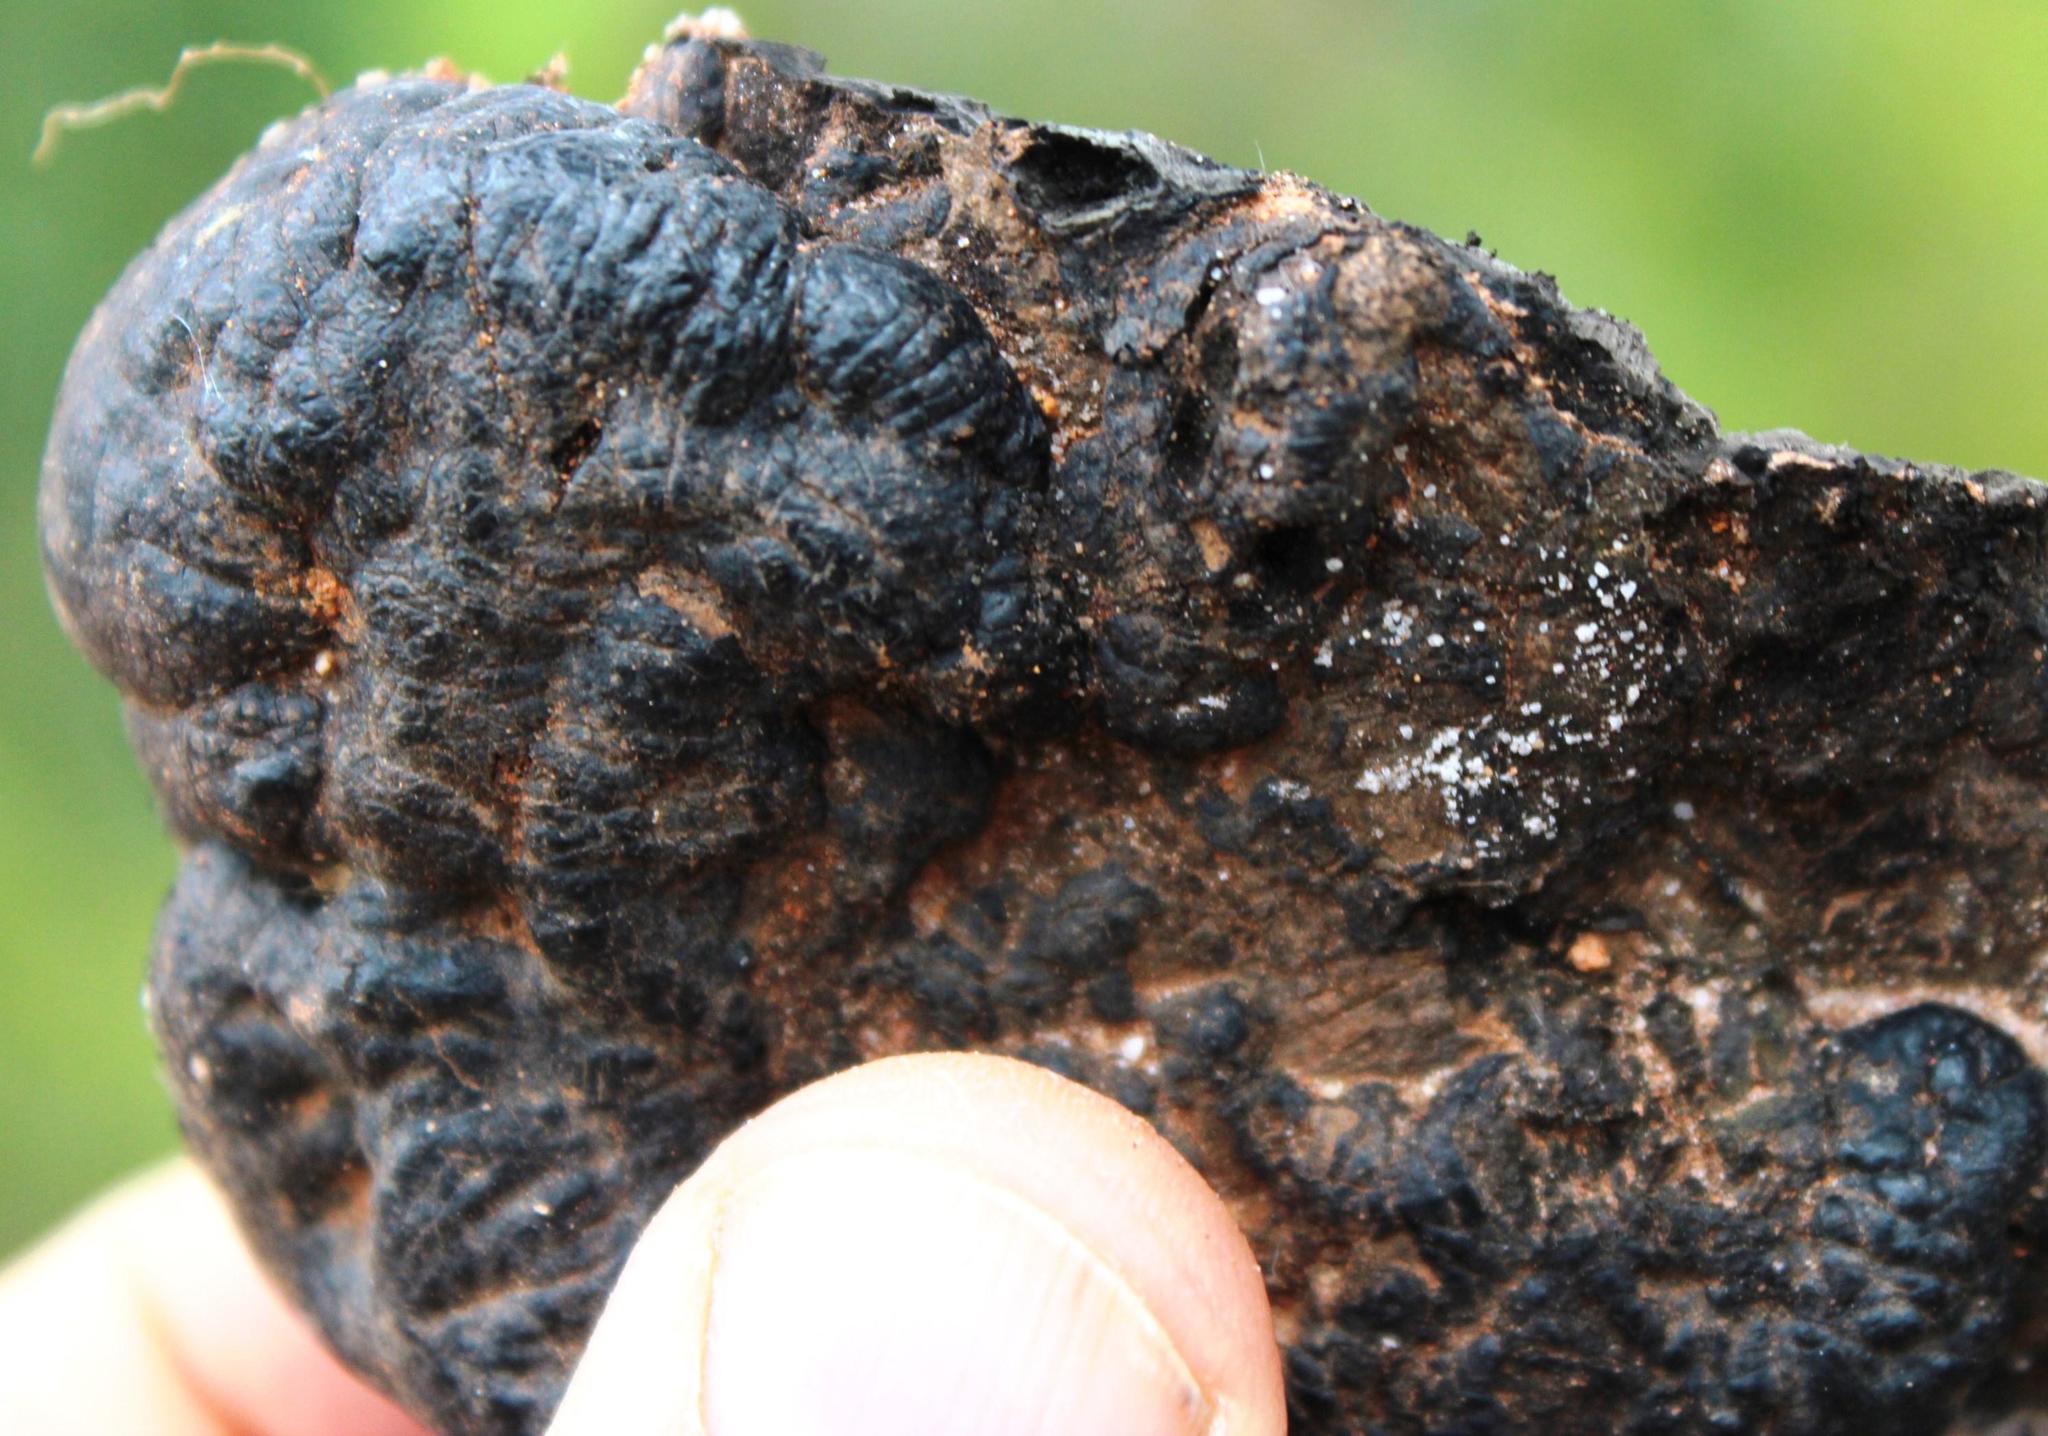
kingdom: Fungi
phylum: Ascomycota
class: Sordariomycetes
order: Xylariales
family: Hypoxylaceae
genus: Daldinia
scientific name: Daldinia concentrica
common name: Cramp balls
